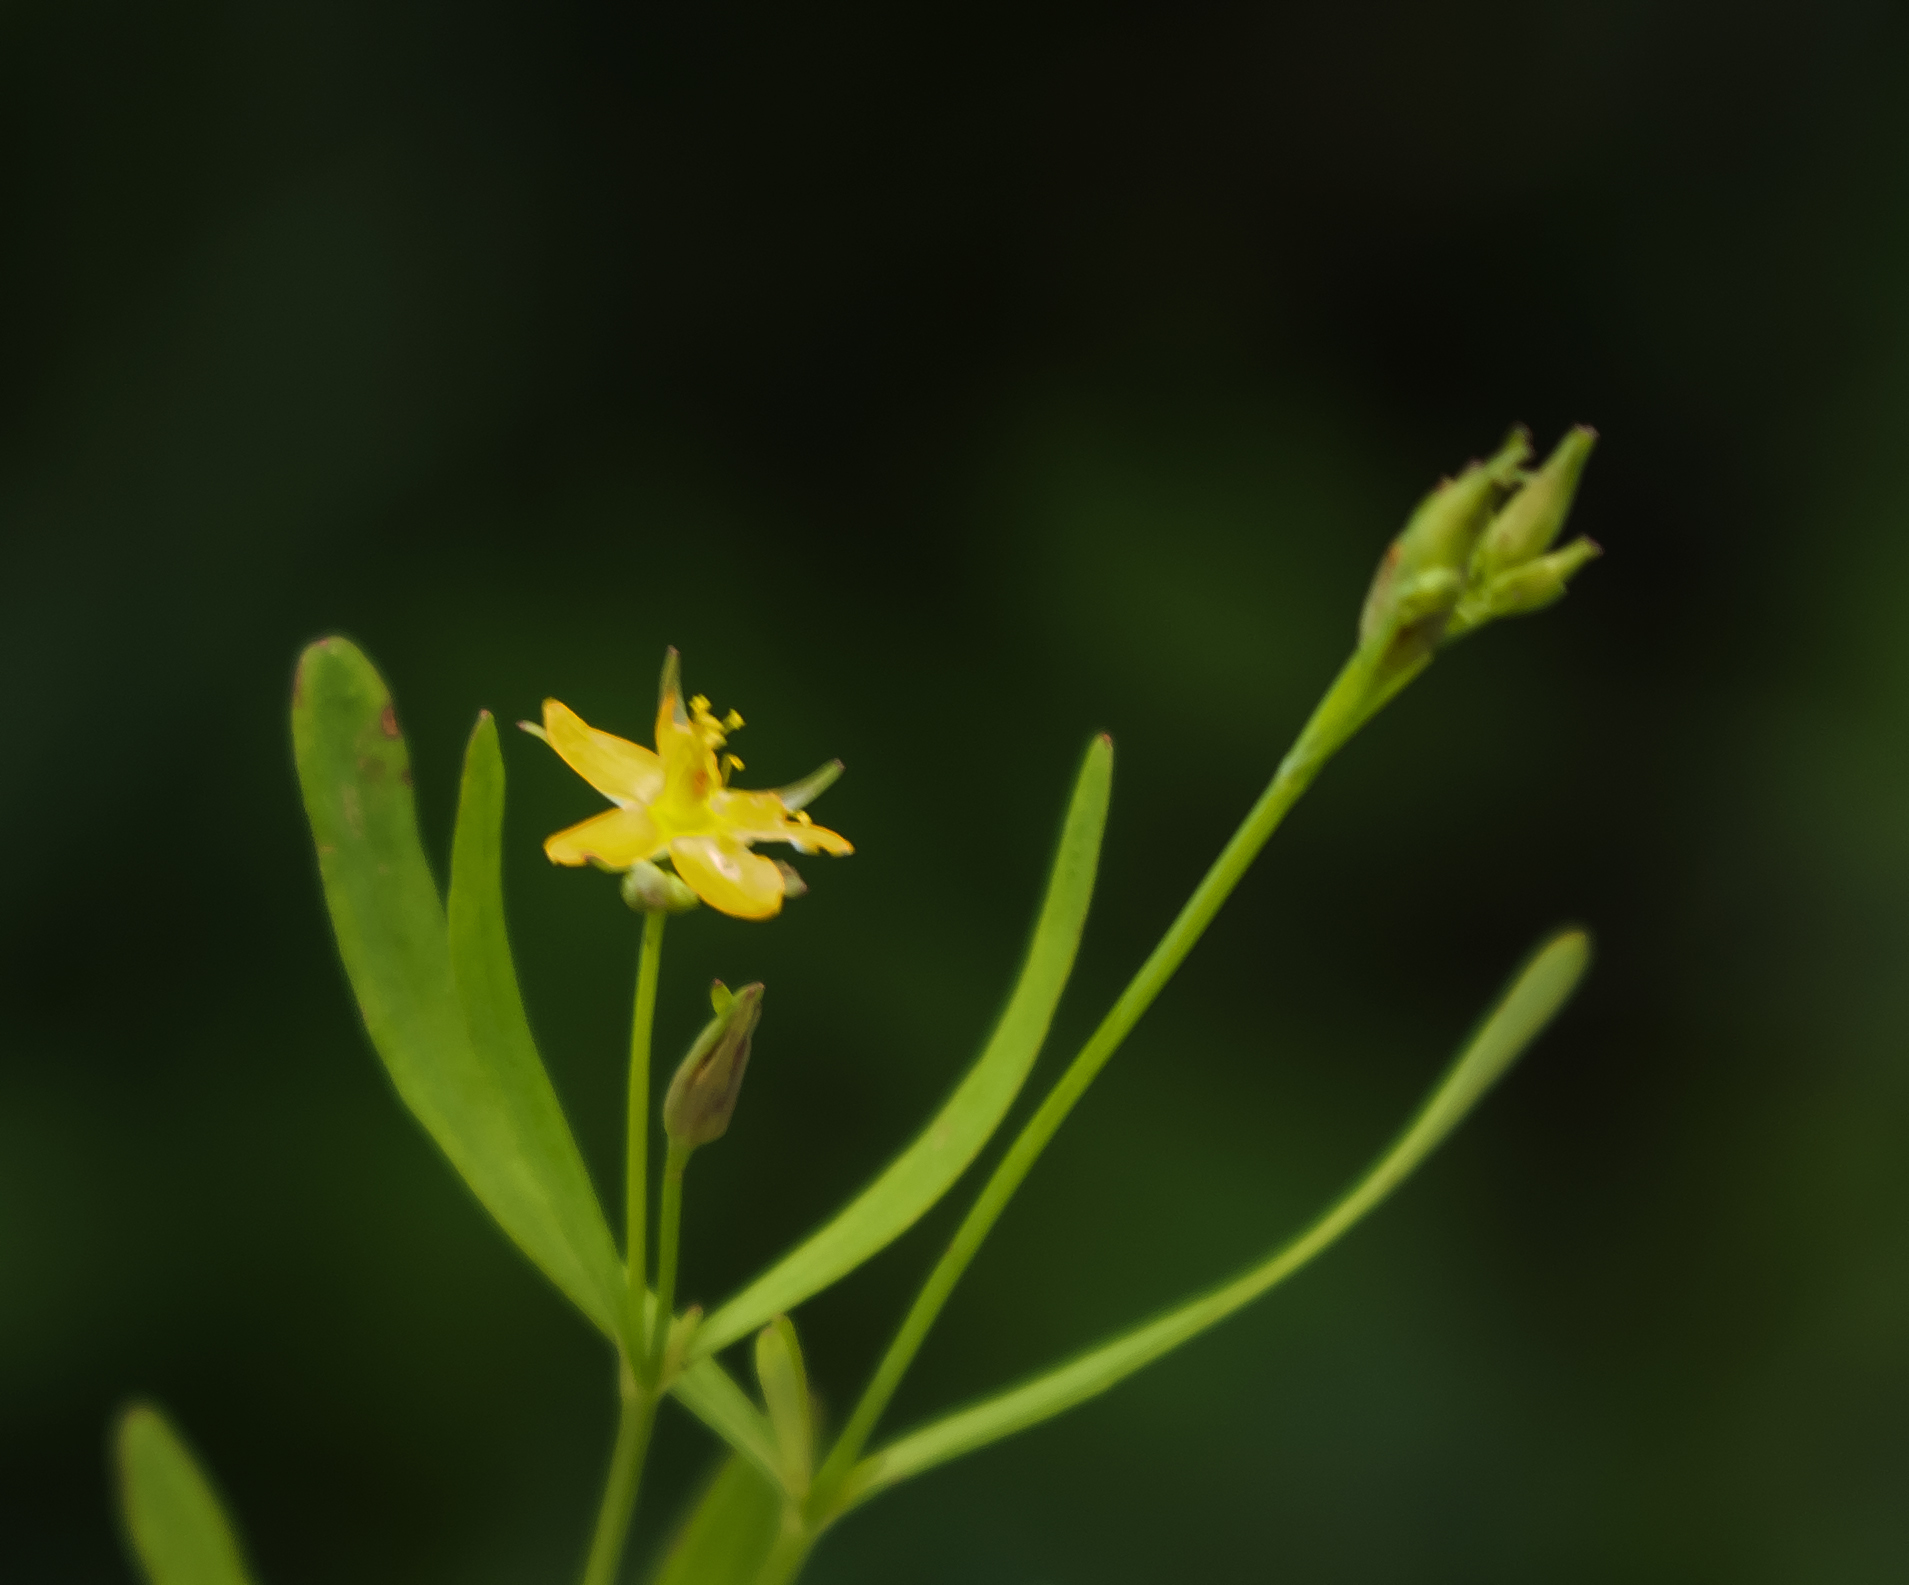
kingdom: Plantae
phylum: Tracheophyta
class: Magnoliopsida
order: Malpighiales
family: Hypericaceae
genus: Hypericum
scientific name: Hypericum canadense
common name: Irish st. john's-wort
